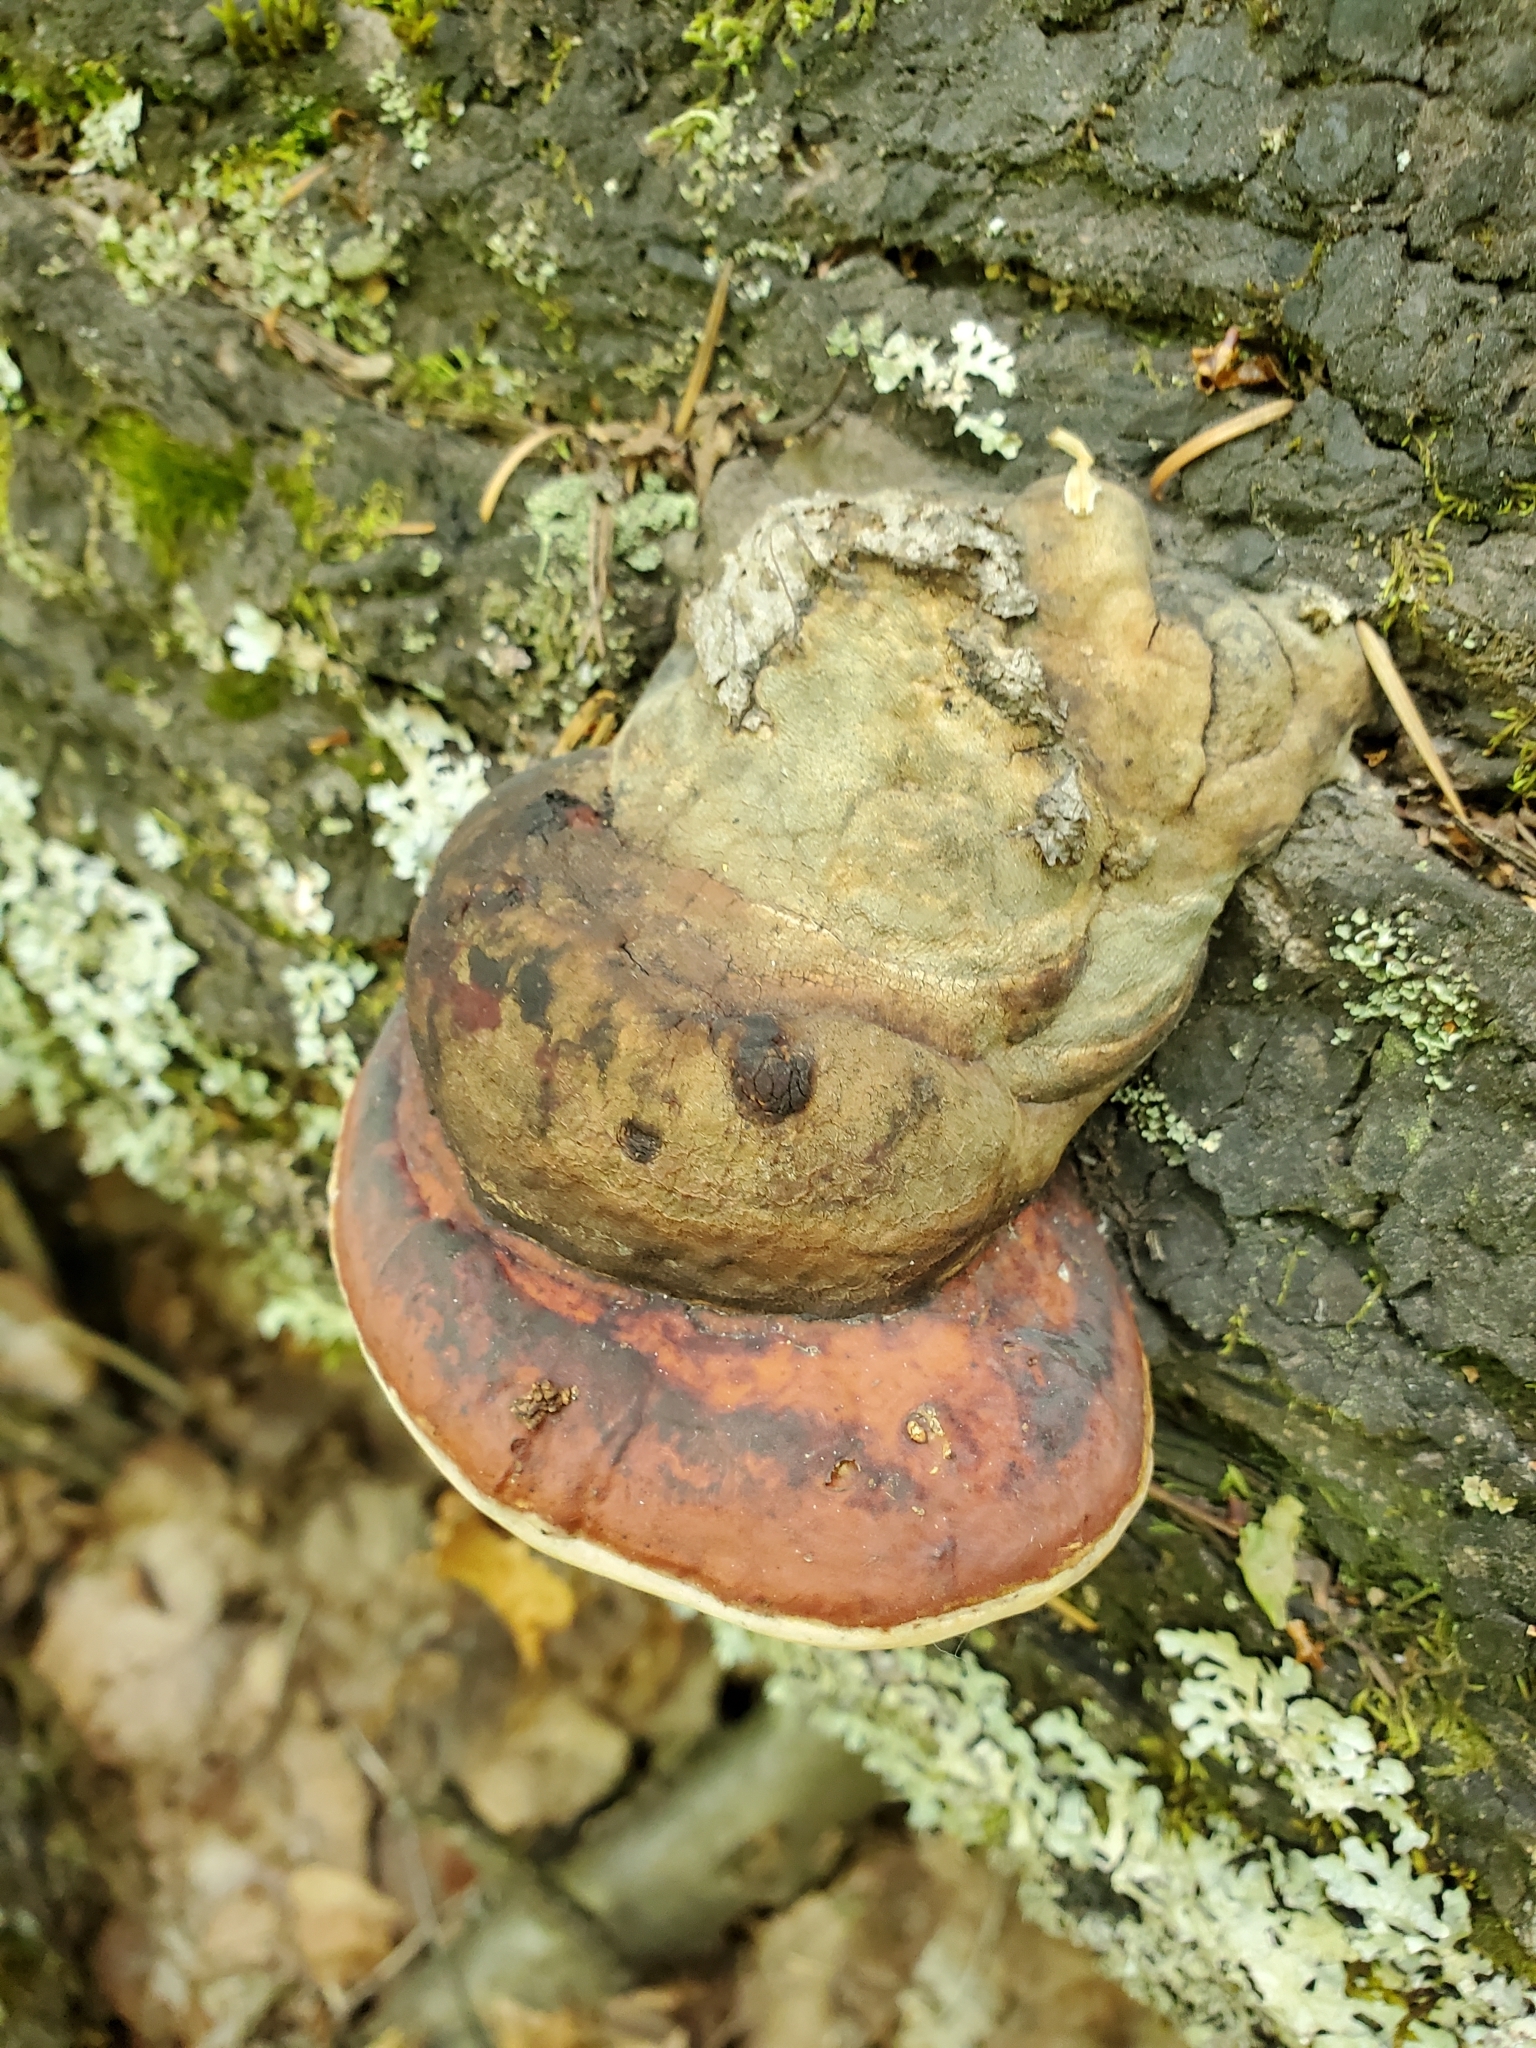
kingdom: Fungi
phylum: Basidiomycota
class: Agaricomycetes
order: Polyporales
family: Fomitopsidaceae
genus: Fomitopsis
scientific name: Fomitopsis mounceae
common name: Northern red belt
